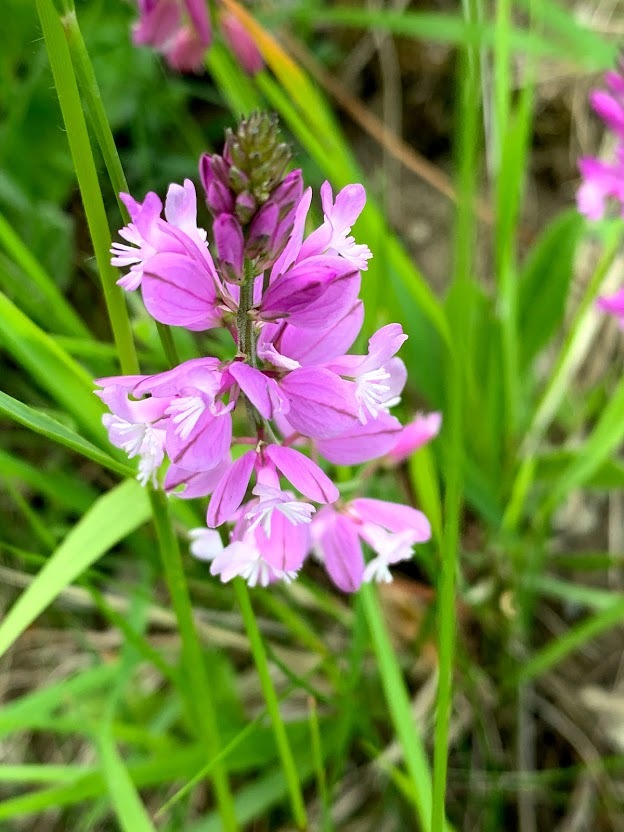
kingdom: Plantae
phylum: Tracheophyta
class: Magnoliopsida
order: Fabales
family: Polygalaceae
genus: Polygala
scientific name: Polygala nicaeensis
